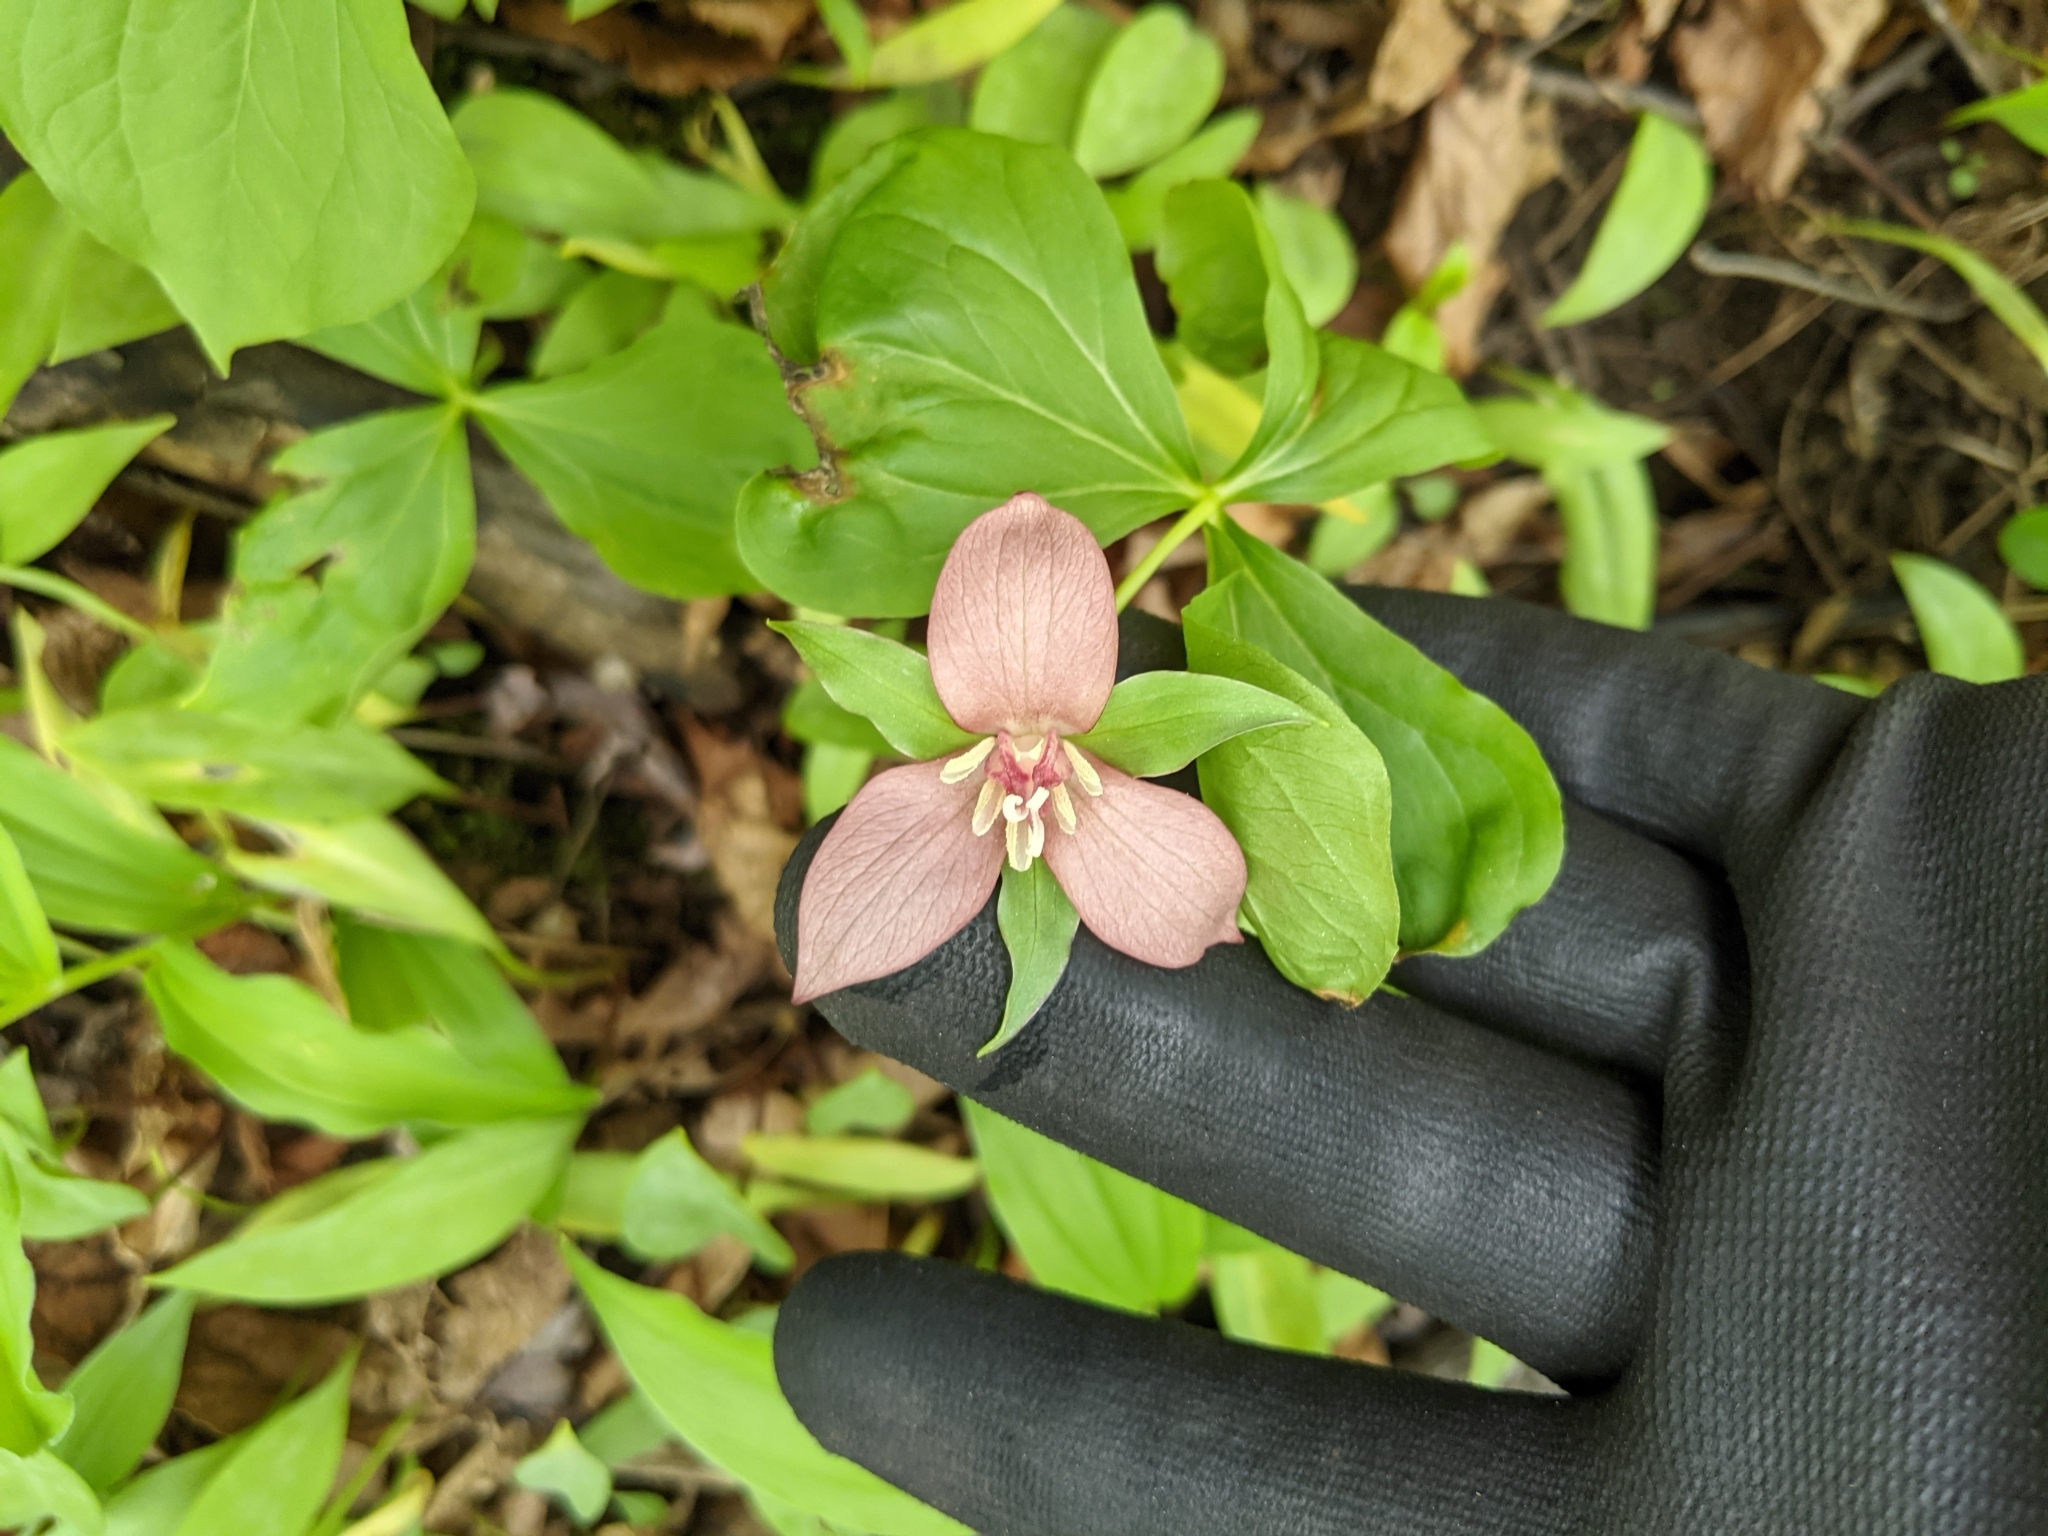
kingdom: Plantae
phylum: Tracheophyta
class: Liliopsida
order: Liliales
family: Melanthiaceae
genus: Trillium
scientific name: Trillium flexipes
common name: Drooping trillium
